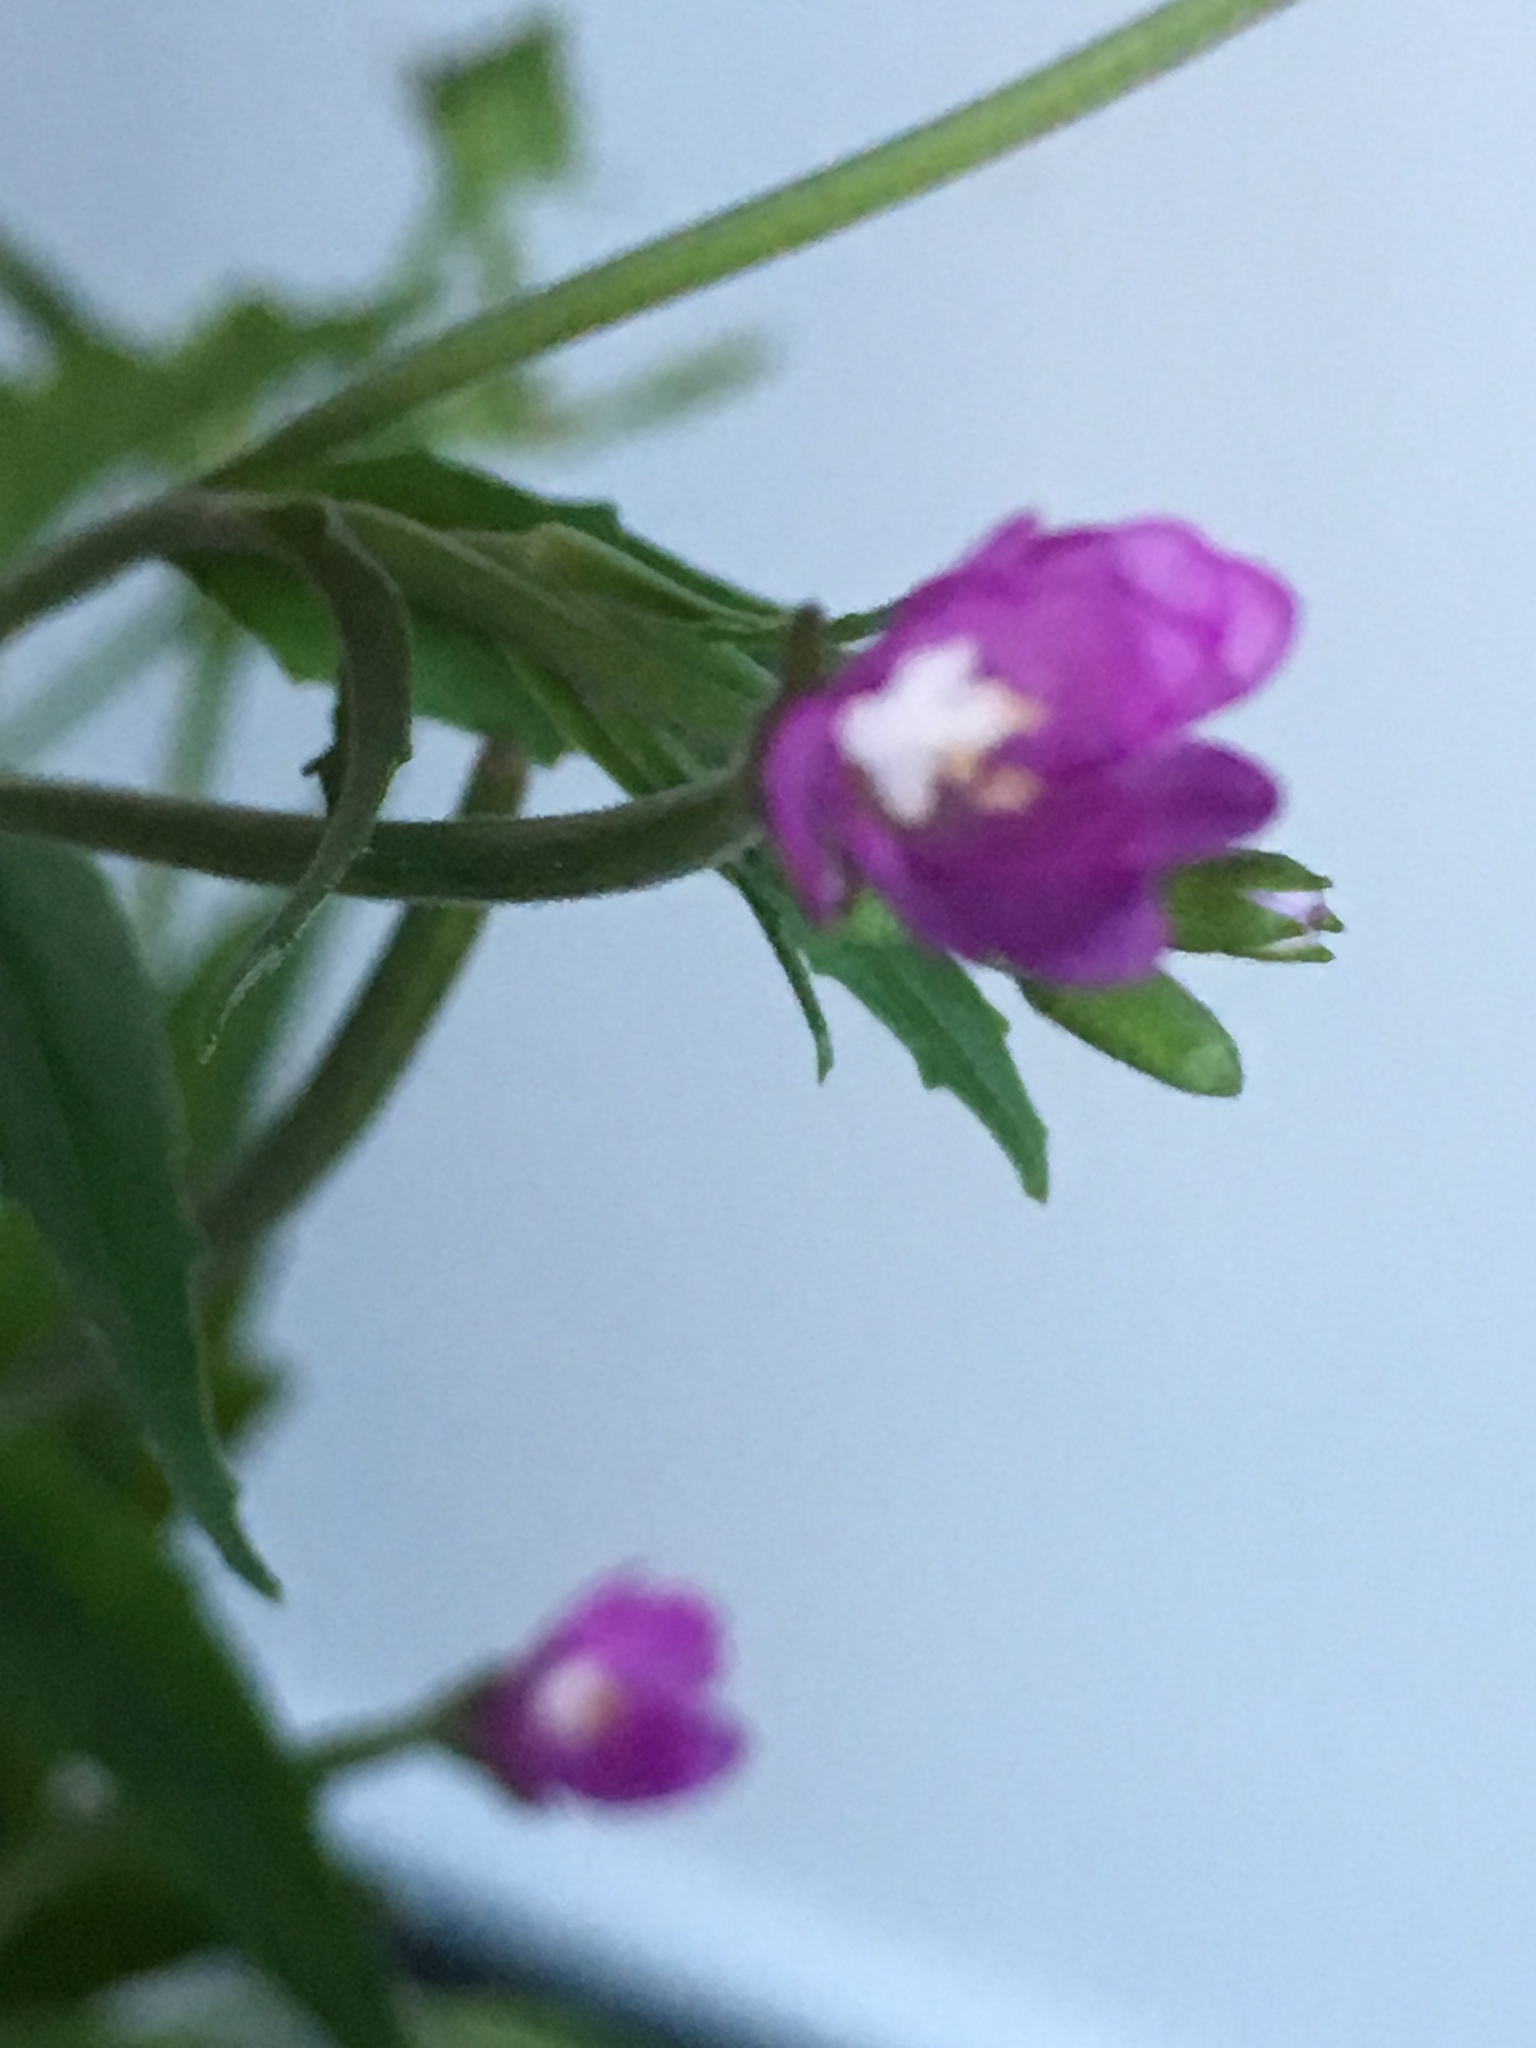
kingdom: Plantae
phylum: Tracheophyta
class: Magnoliopsida
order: Myrtales
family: Onagraceae
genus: Epilobium
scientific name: Epilobium hirsutum
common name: Great willowherb
